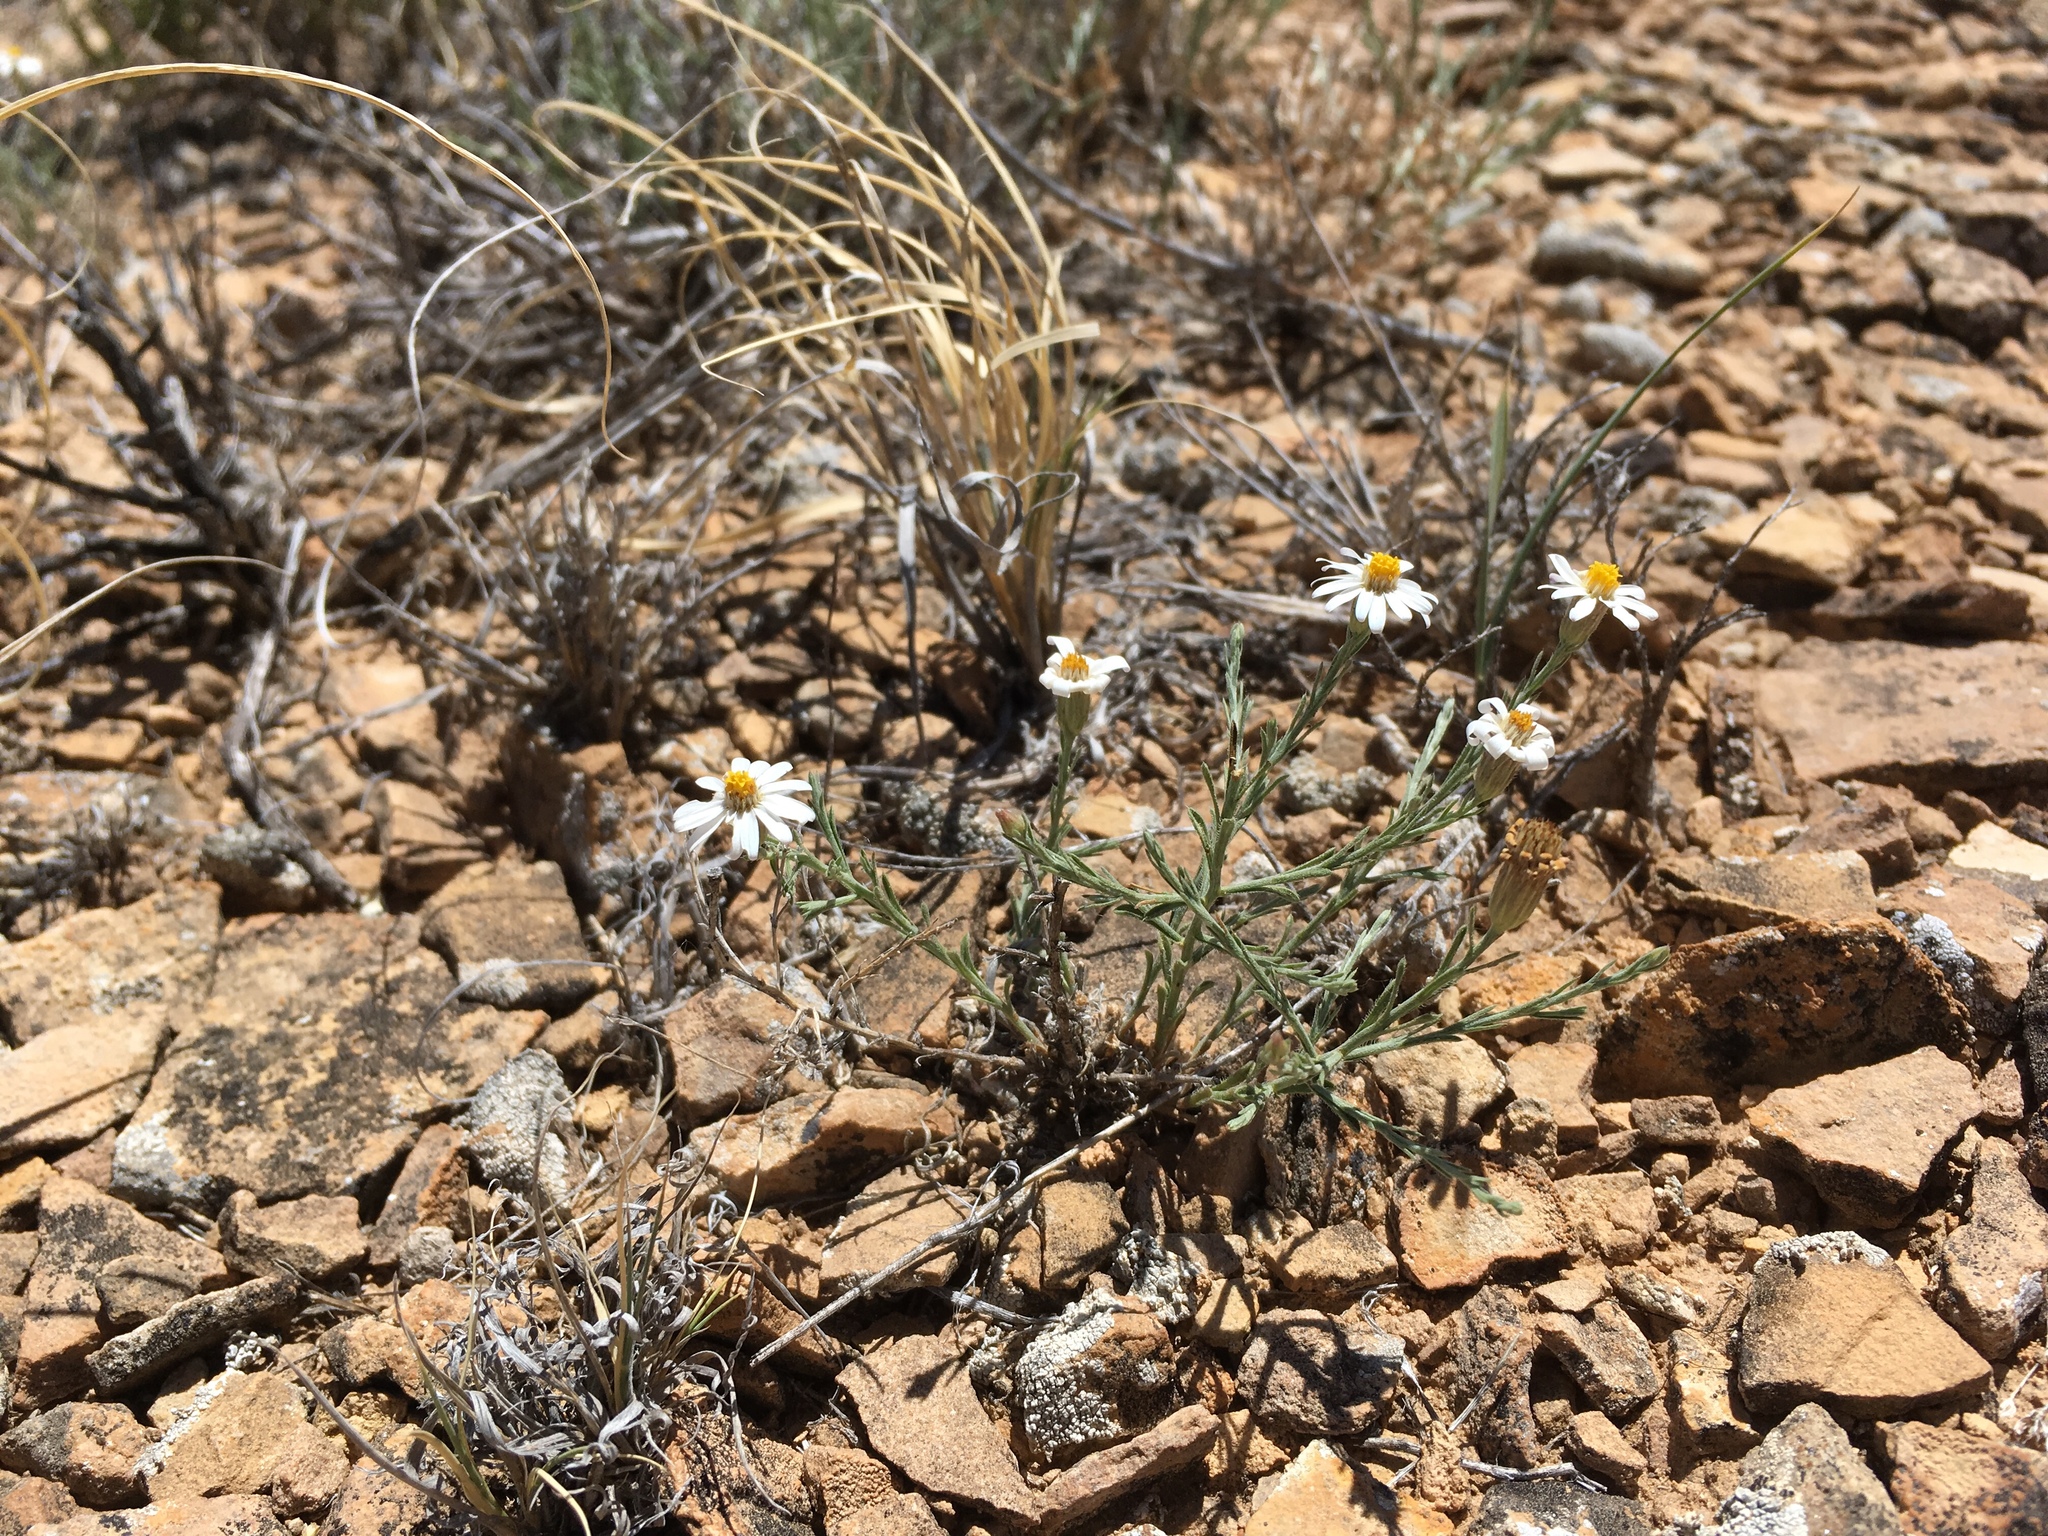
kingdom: Plantae
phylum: Tracheophyta
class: Magnoliopsida
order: Asterales
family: Asteraceae
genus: Chaetopappa
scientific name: Chaetopappa ericoides
